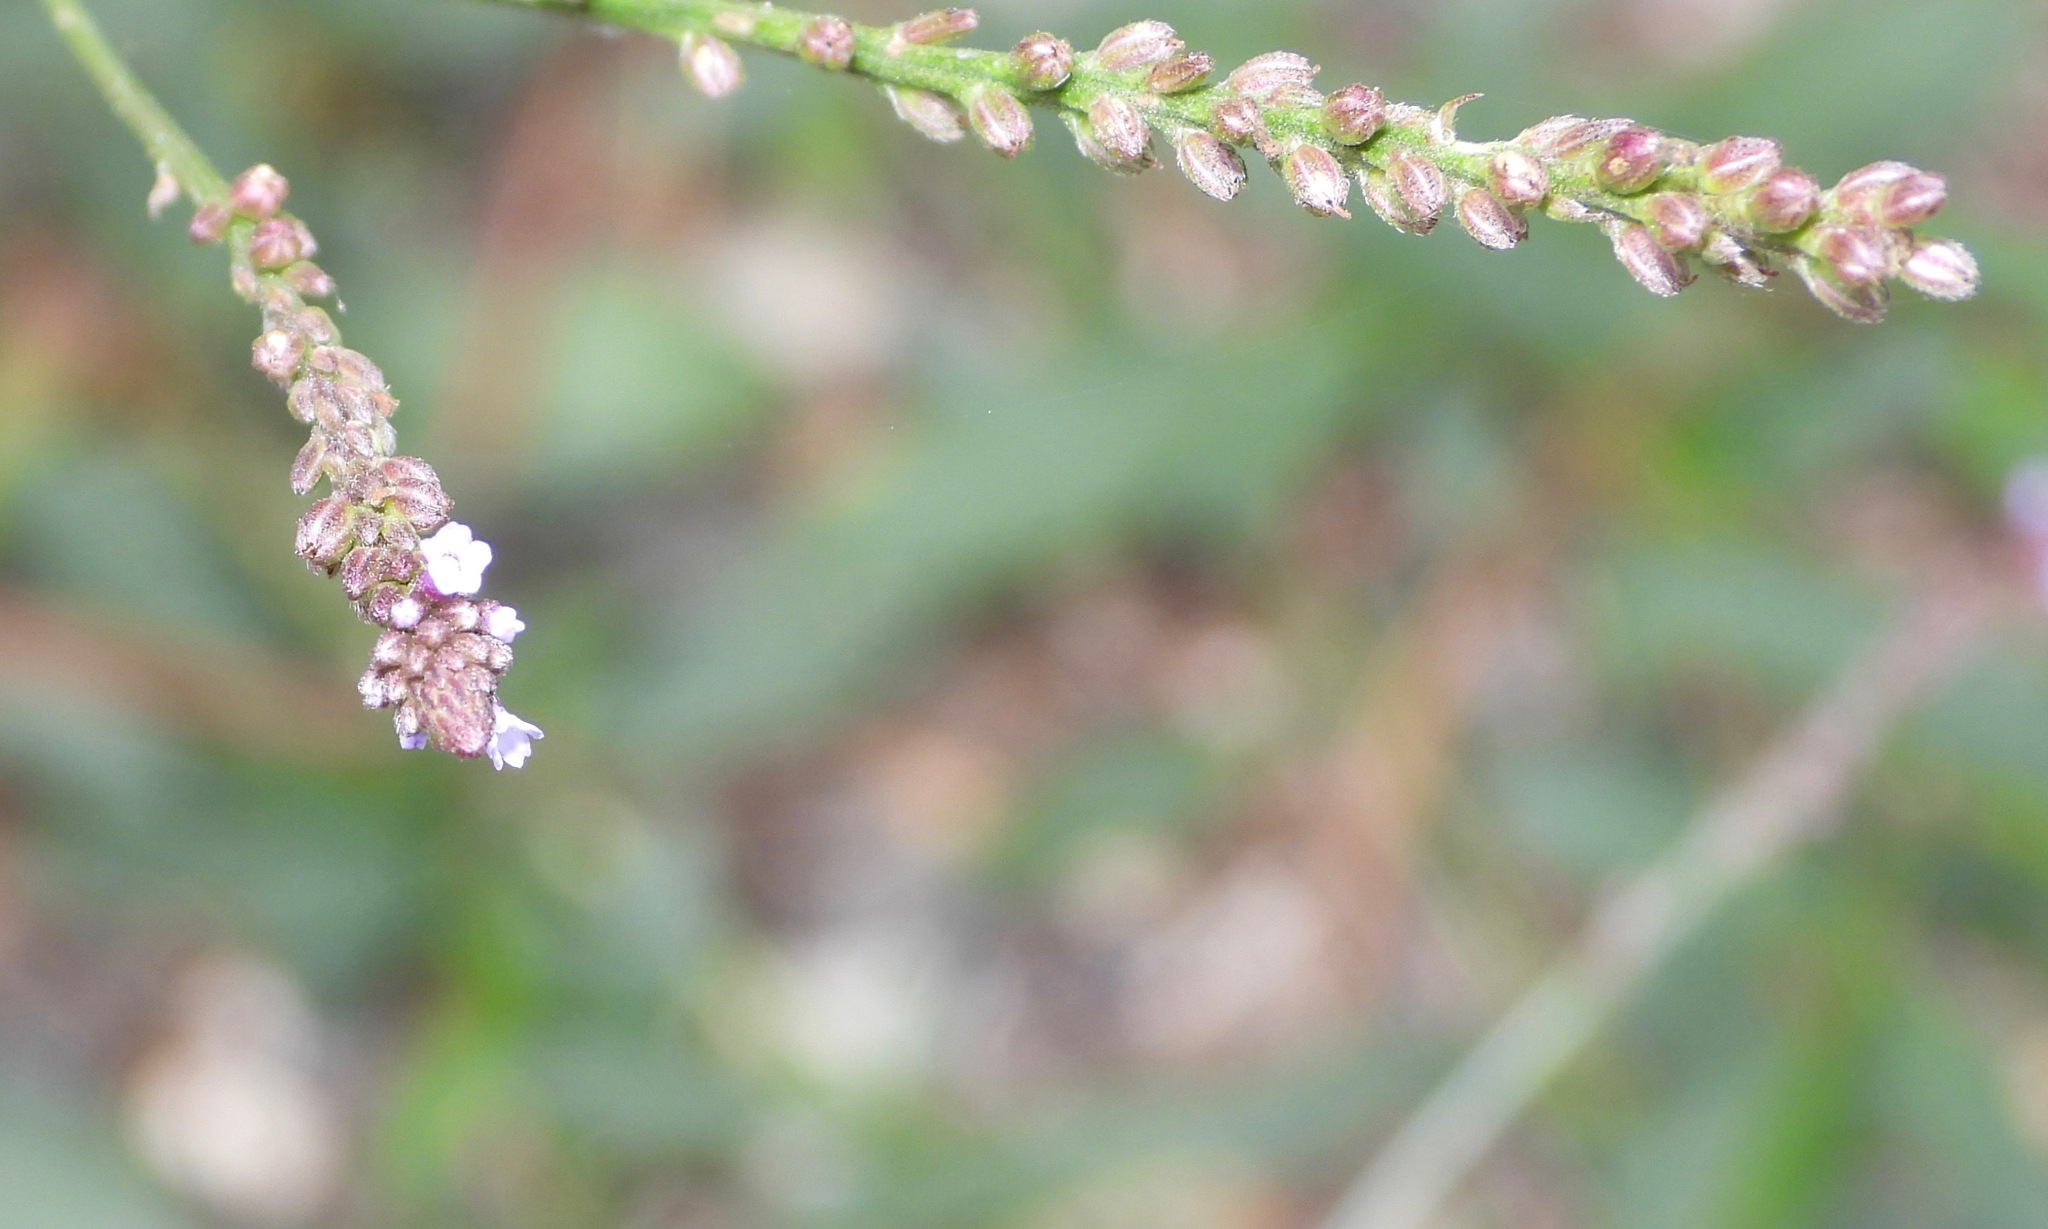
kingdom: Plantae
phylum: Tracheophyta
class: Magnoliopsida
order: Lamiales
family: Verbenaceae
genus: Verbena
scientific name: Verbena litoralis
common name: Seashore vervain
